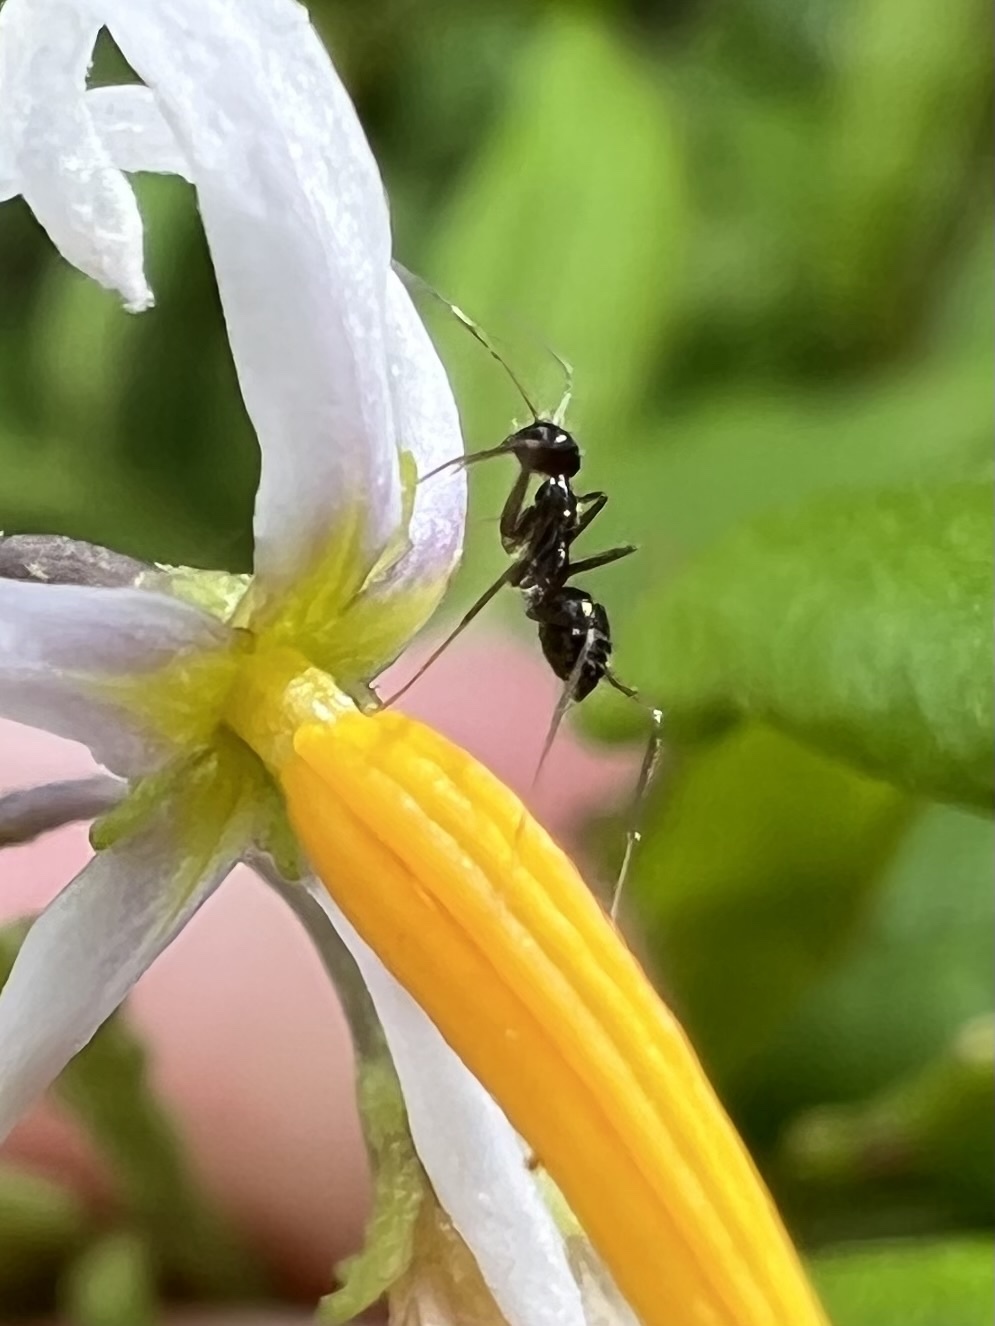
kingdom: Animalia
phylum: Arthropoda
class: Insecta
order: Hymenoptera
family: Formicidae
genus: Paratrechina
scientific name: Paratrechina longicornis
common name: Longhorned crazy ant
